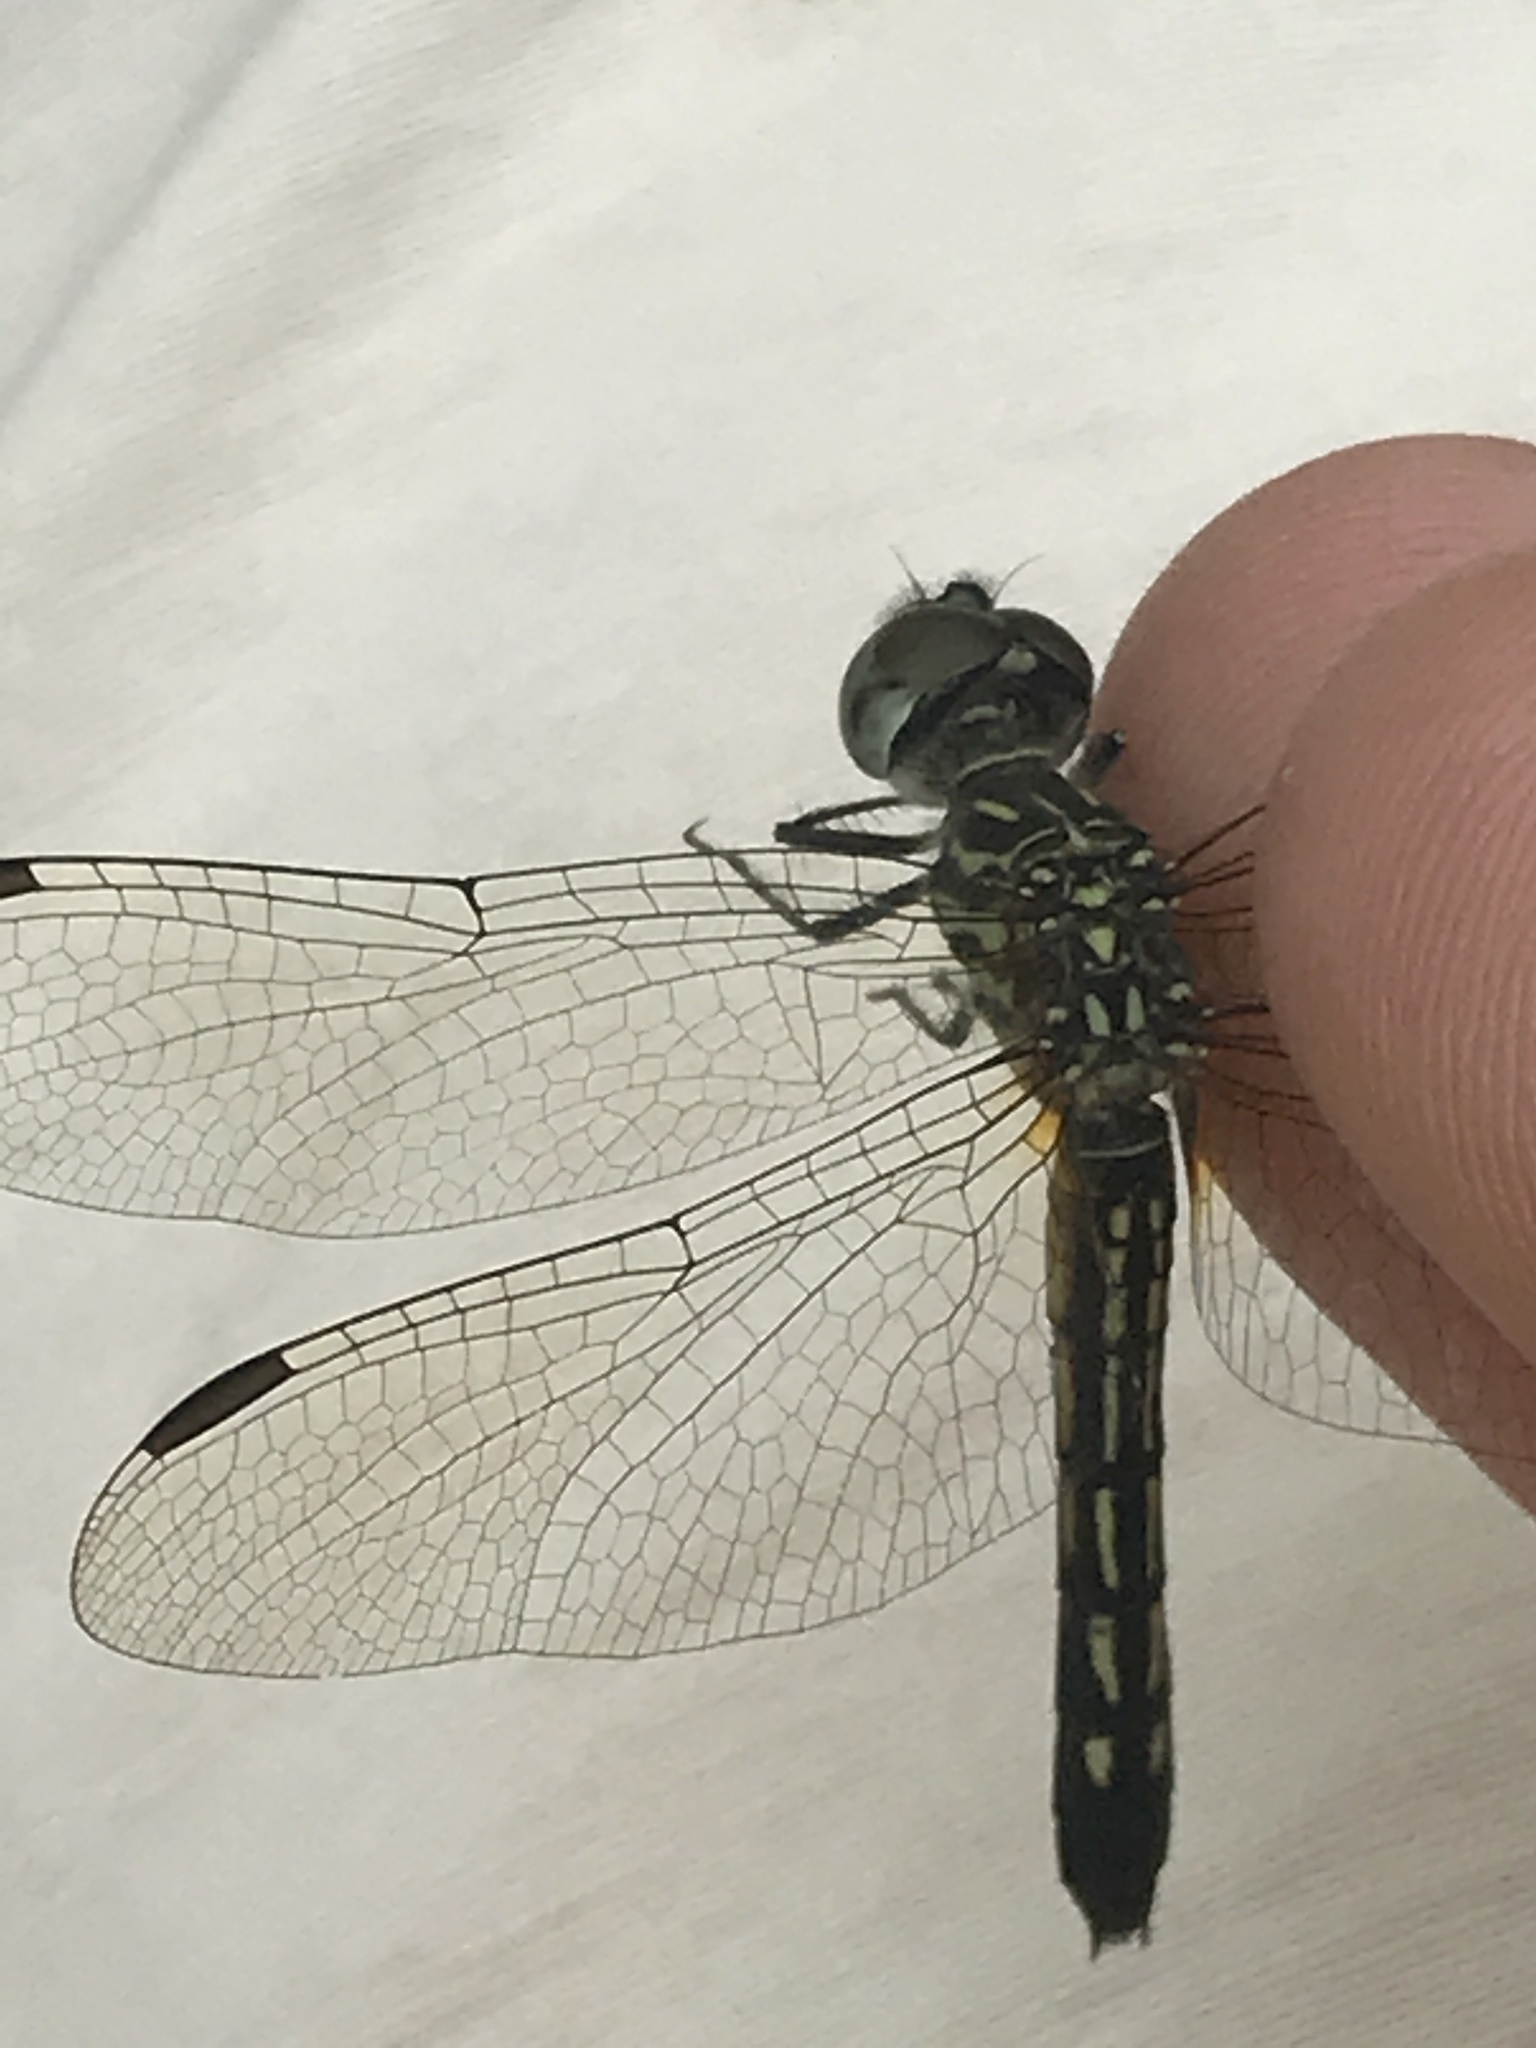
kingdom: Animalia
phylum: Arthropoda
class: Insecta
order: Odonata
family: Libellulidae
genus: Pachydiplax
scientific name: Pachydiplax longipennis
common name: Blue dasher
